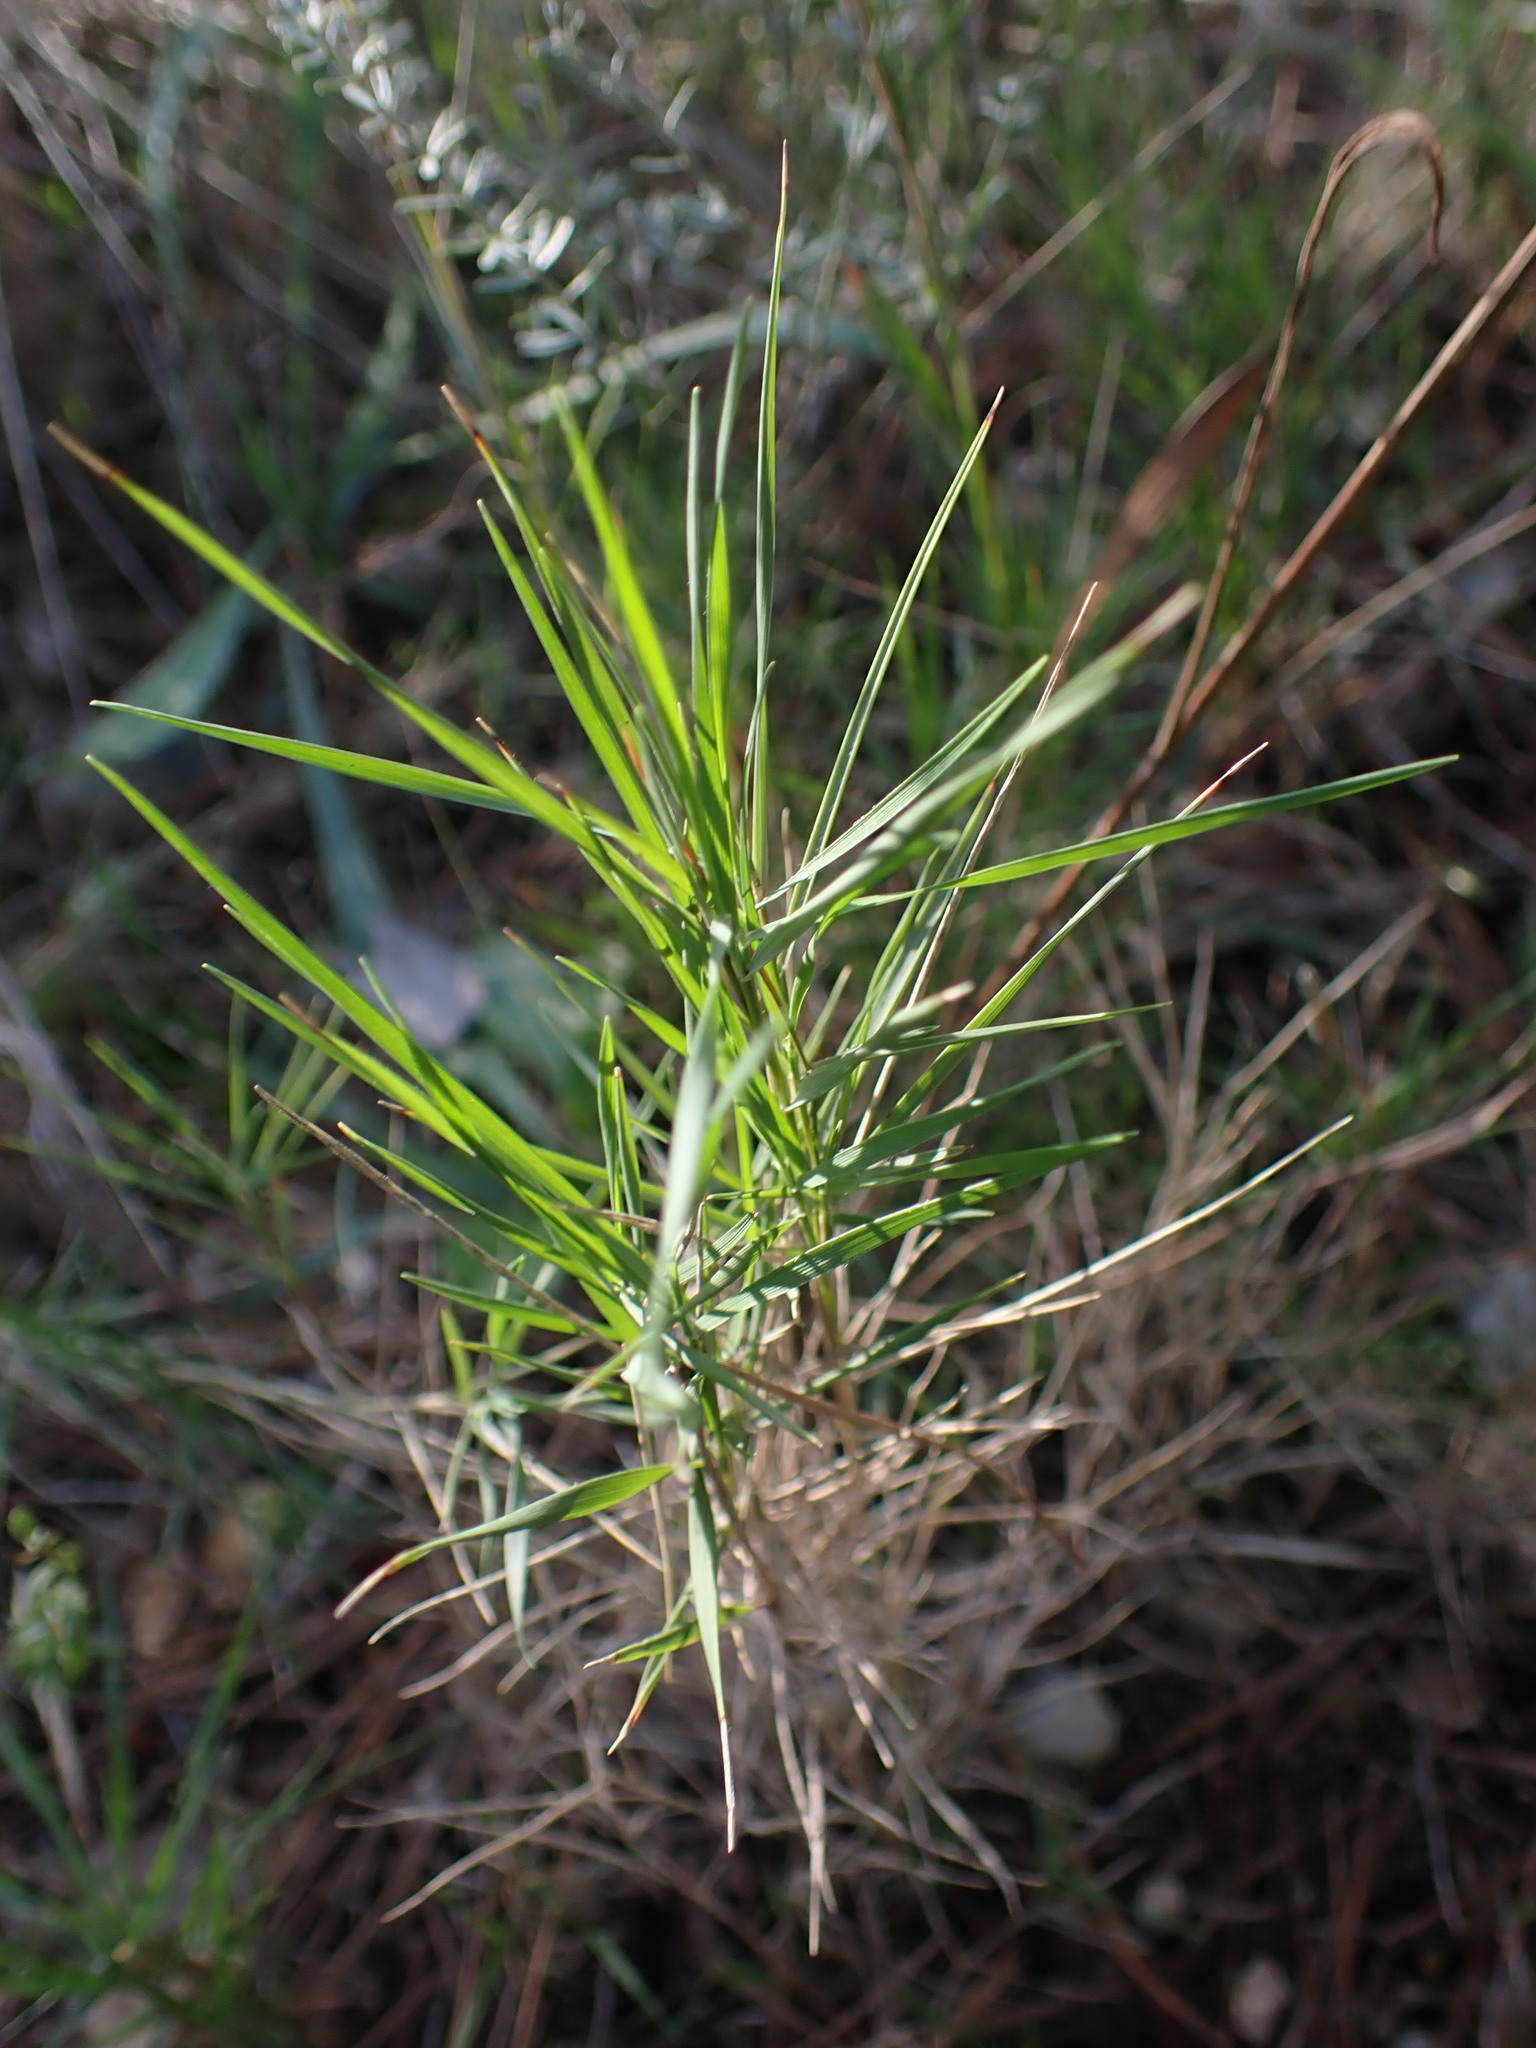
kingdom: Plantae
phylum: Tracheophyta
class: Liliopsida
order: Poales
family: Poaceae
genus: Brachypodium
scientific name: Brachypodium retusum
